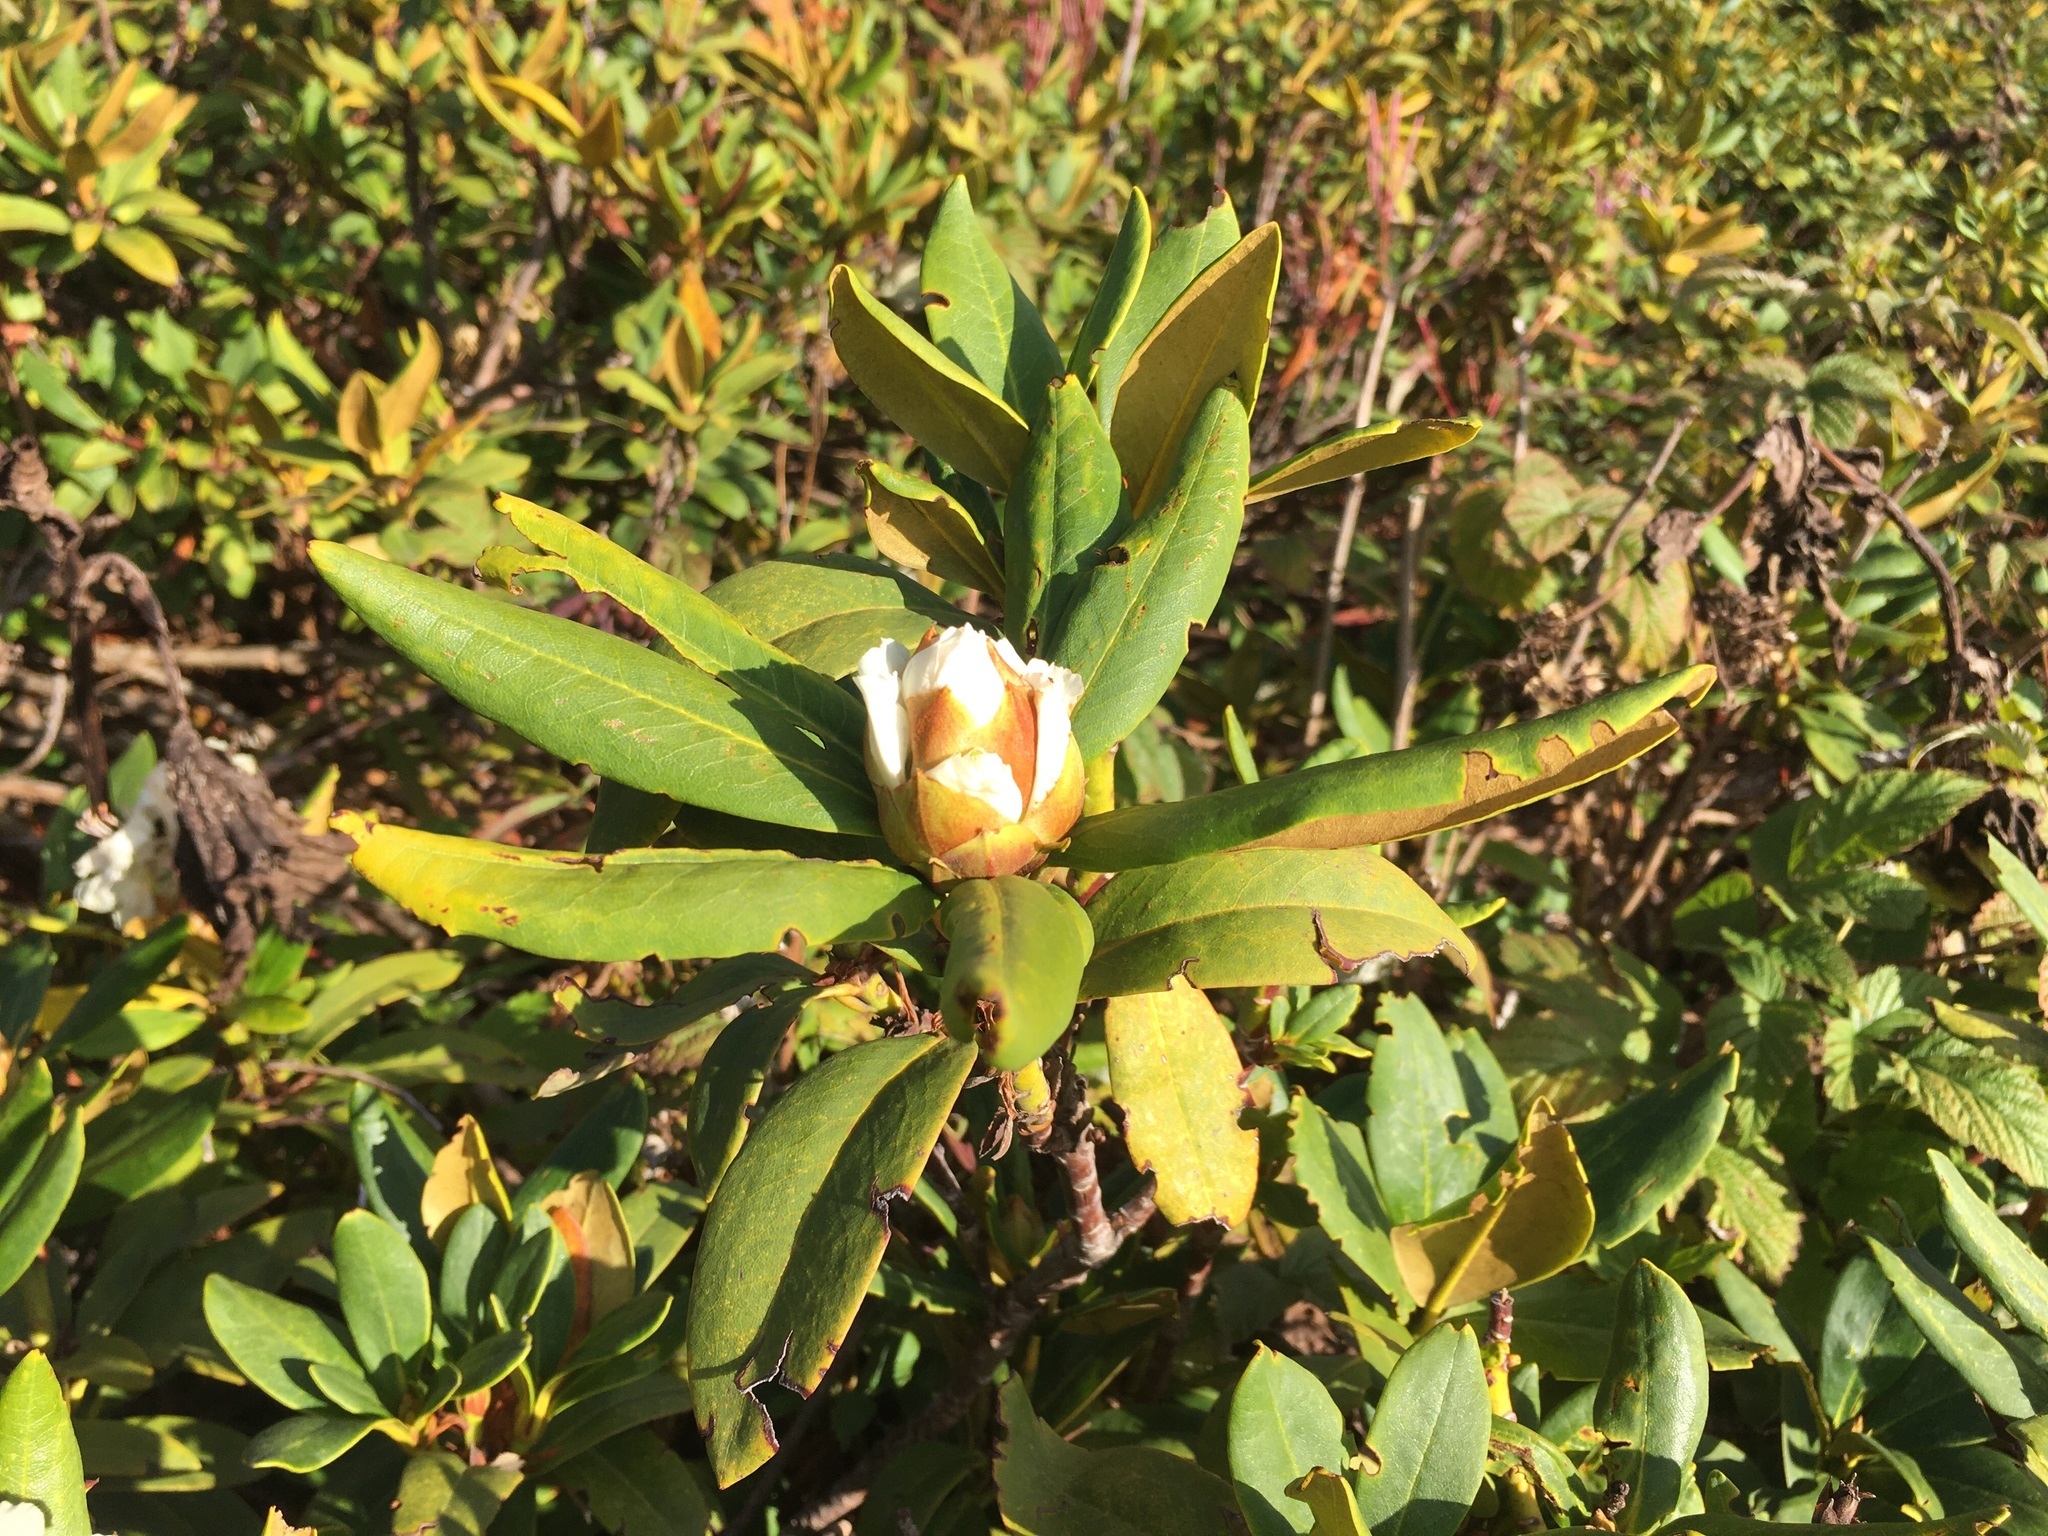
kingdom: Plantae
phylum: Tracheophyta
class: Magnoliopsida
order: Ericales
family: Ericaceae
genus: Rhododendron
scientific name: Rhododendron caucasicum
